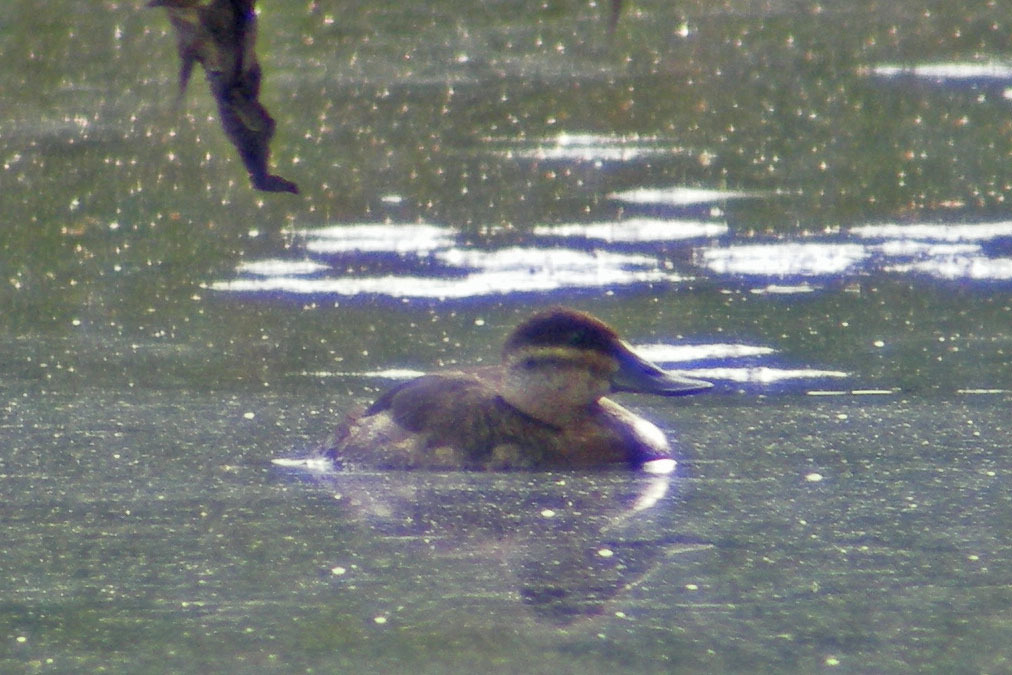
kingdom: Animalia
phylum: Chordata
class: Aves
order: Anseriformes
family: Anatidae
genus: Oxyura
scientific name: Oxyura jamaicensis
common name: Ruddy duck
